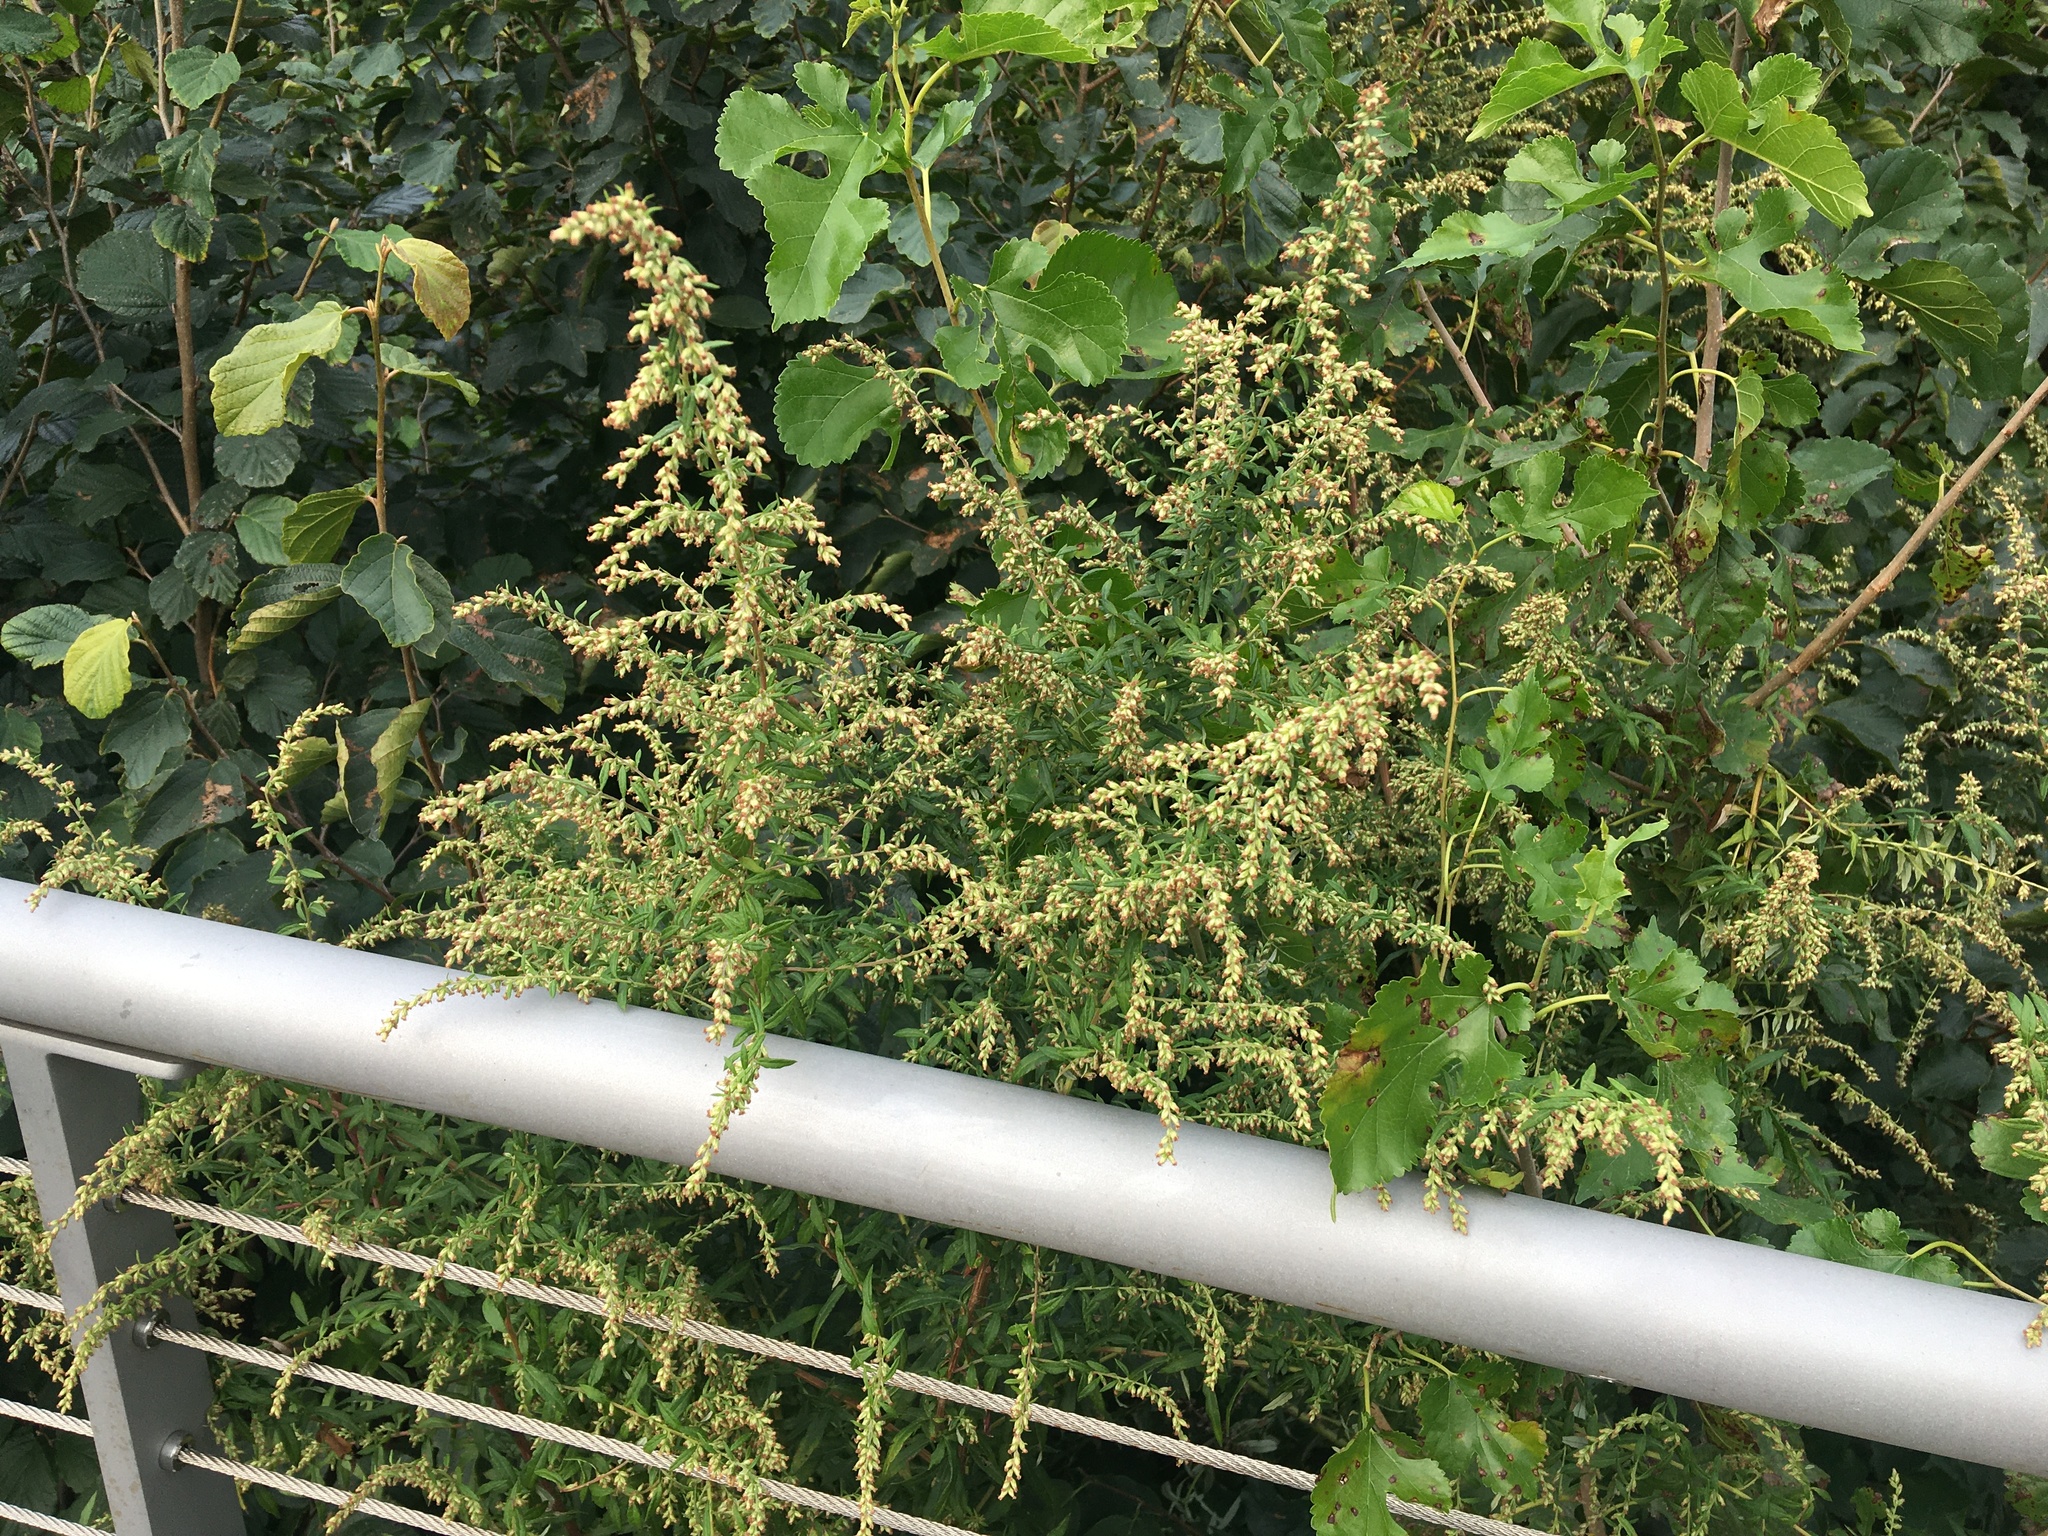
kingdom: Plantae
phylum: Tracheophyta
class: Magnoliopsida
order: Asterales
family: Asteraceae
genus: Artemisia
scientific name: Artemisia vulgaris
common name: Mugwort
